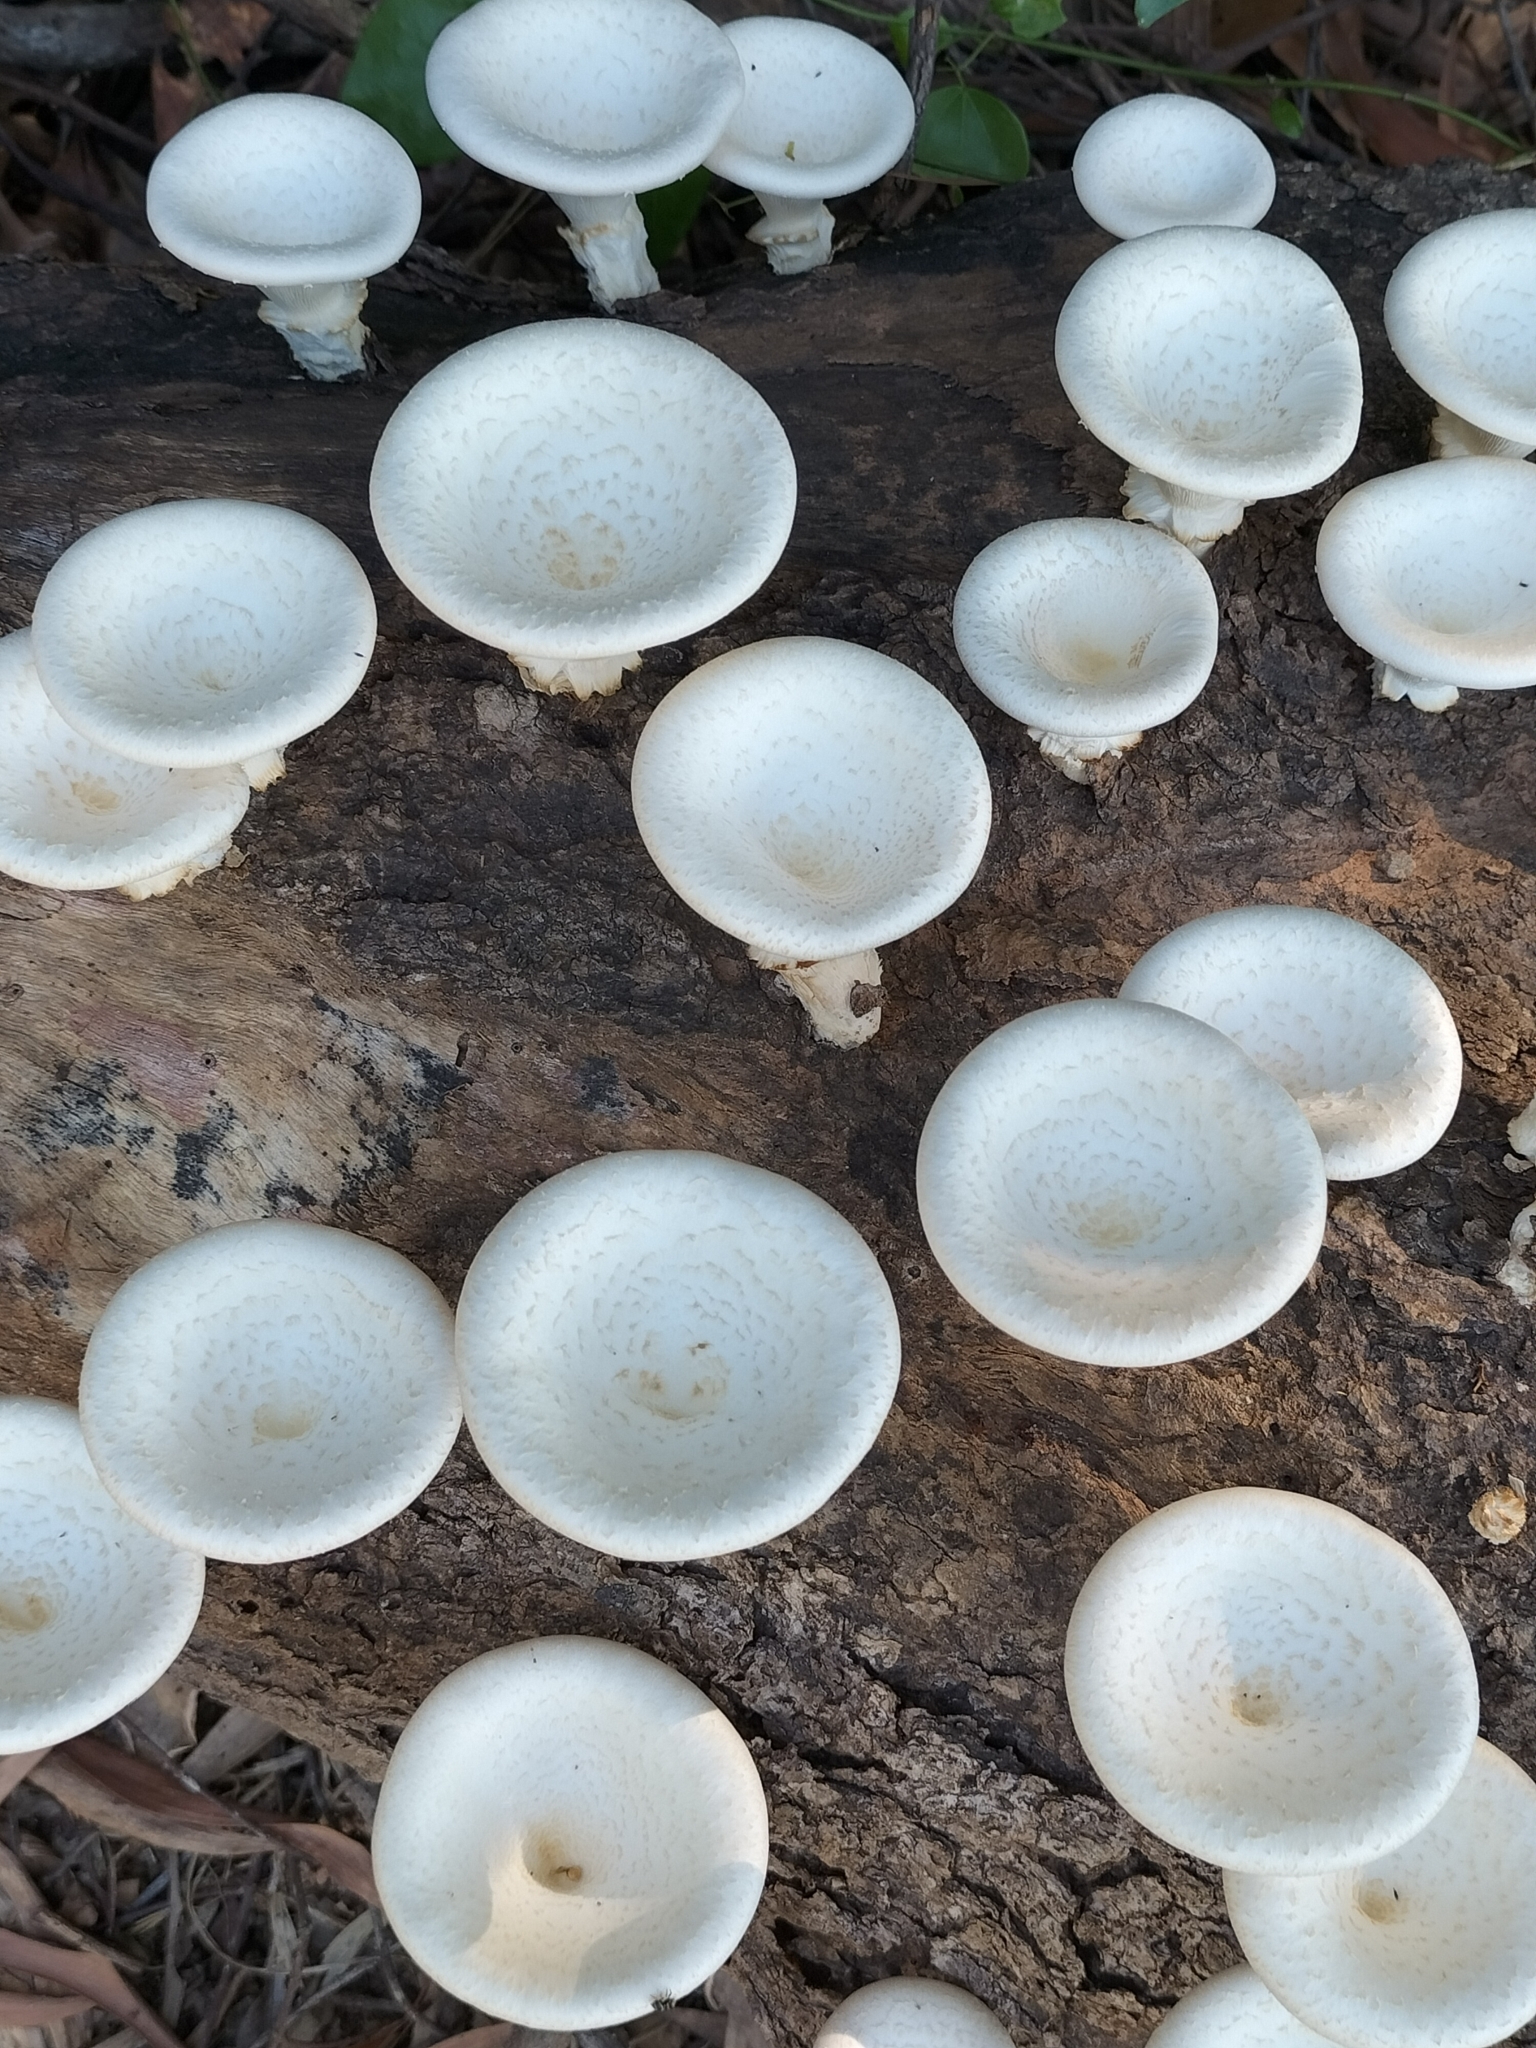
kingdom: Fungi
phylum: Basidiomycota
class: Agaricomycetes
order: Polyporales
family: Polyporaceae
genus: Lentinus
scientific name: Lentinus sajor-caju
